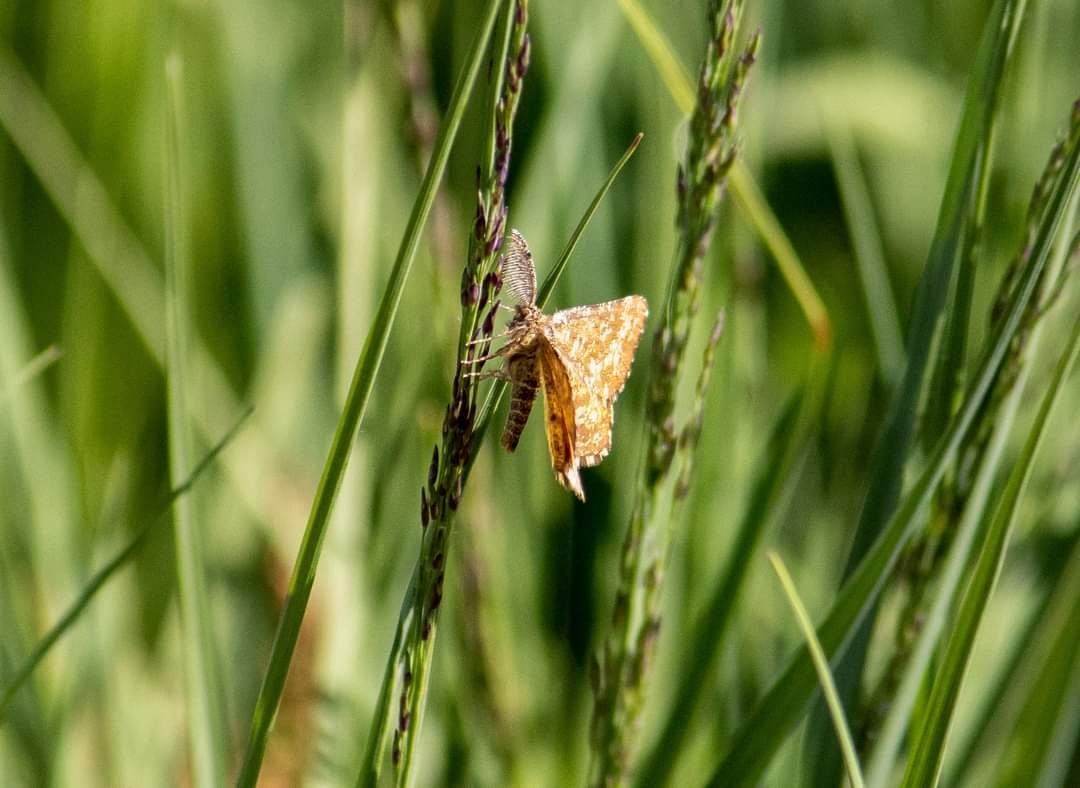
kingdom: Animalia
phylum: Arthropoda
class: Insecta
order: Lepidoptera
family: Geometridae
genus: Ematurga
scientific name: Ematurga atomaria
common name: Common heath
